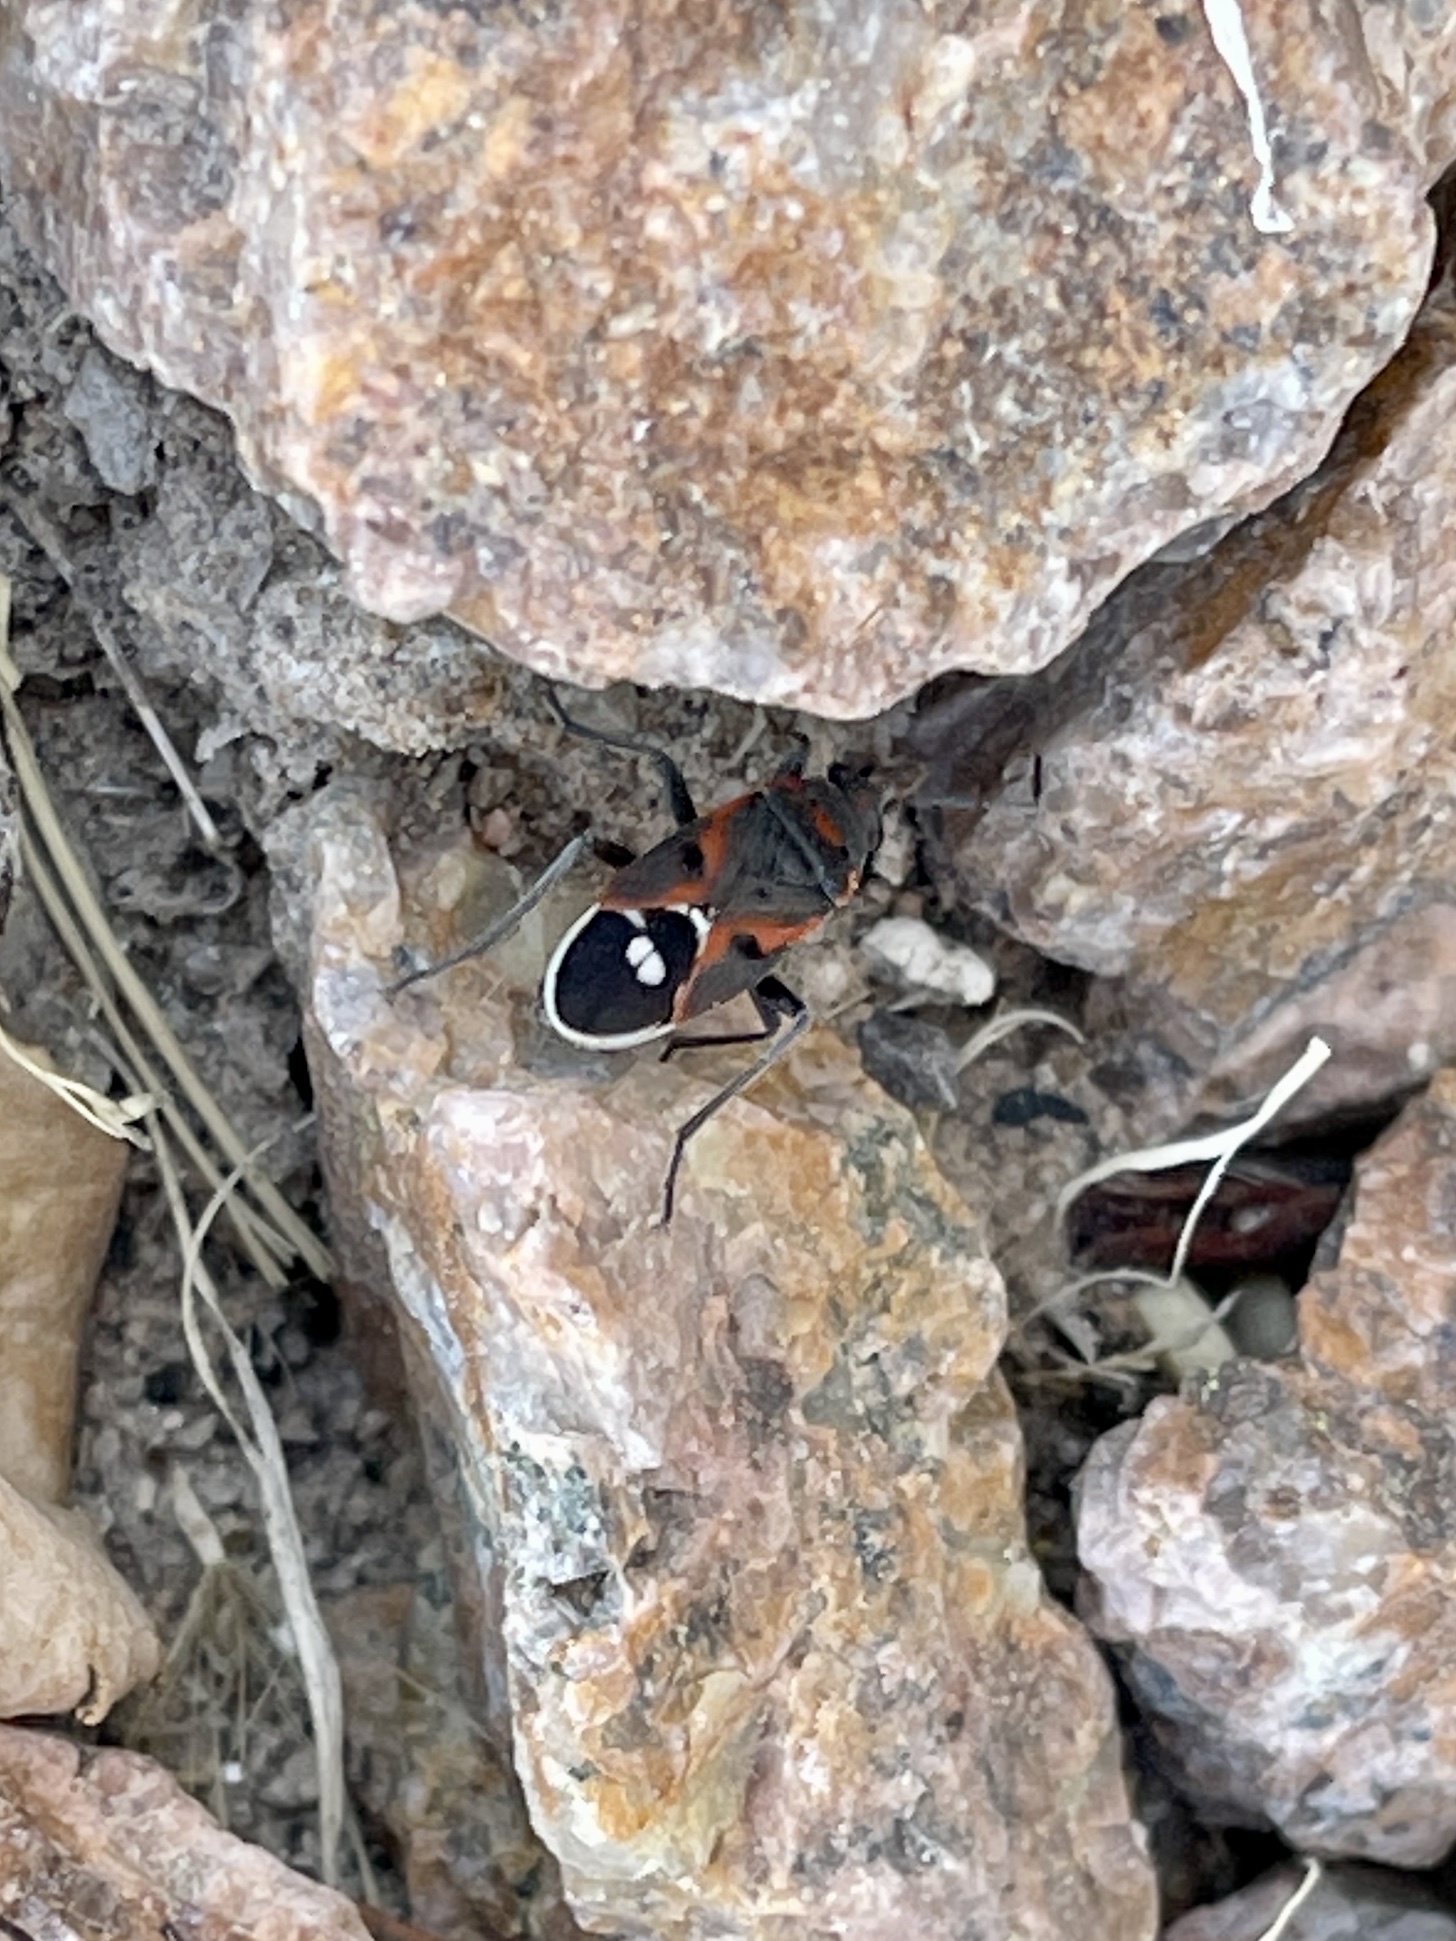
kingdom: Animalia
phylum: Arthropoda
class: Insecta
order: Hemiptera
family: Lygaeidae
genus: Lygaeus
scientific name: Lygaeus kalmii
